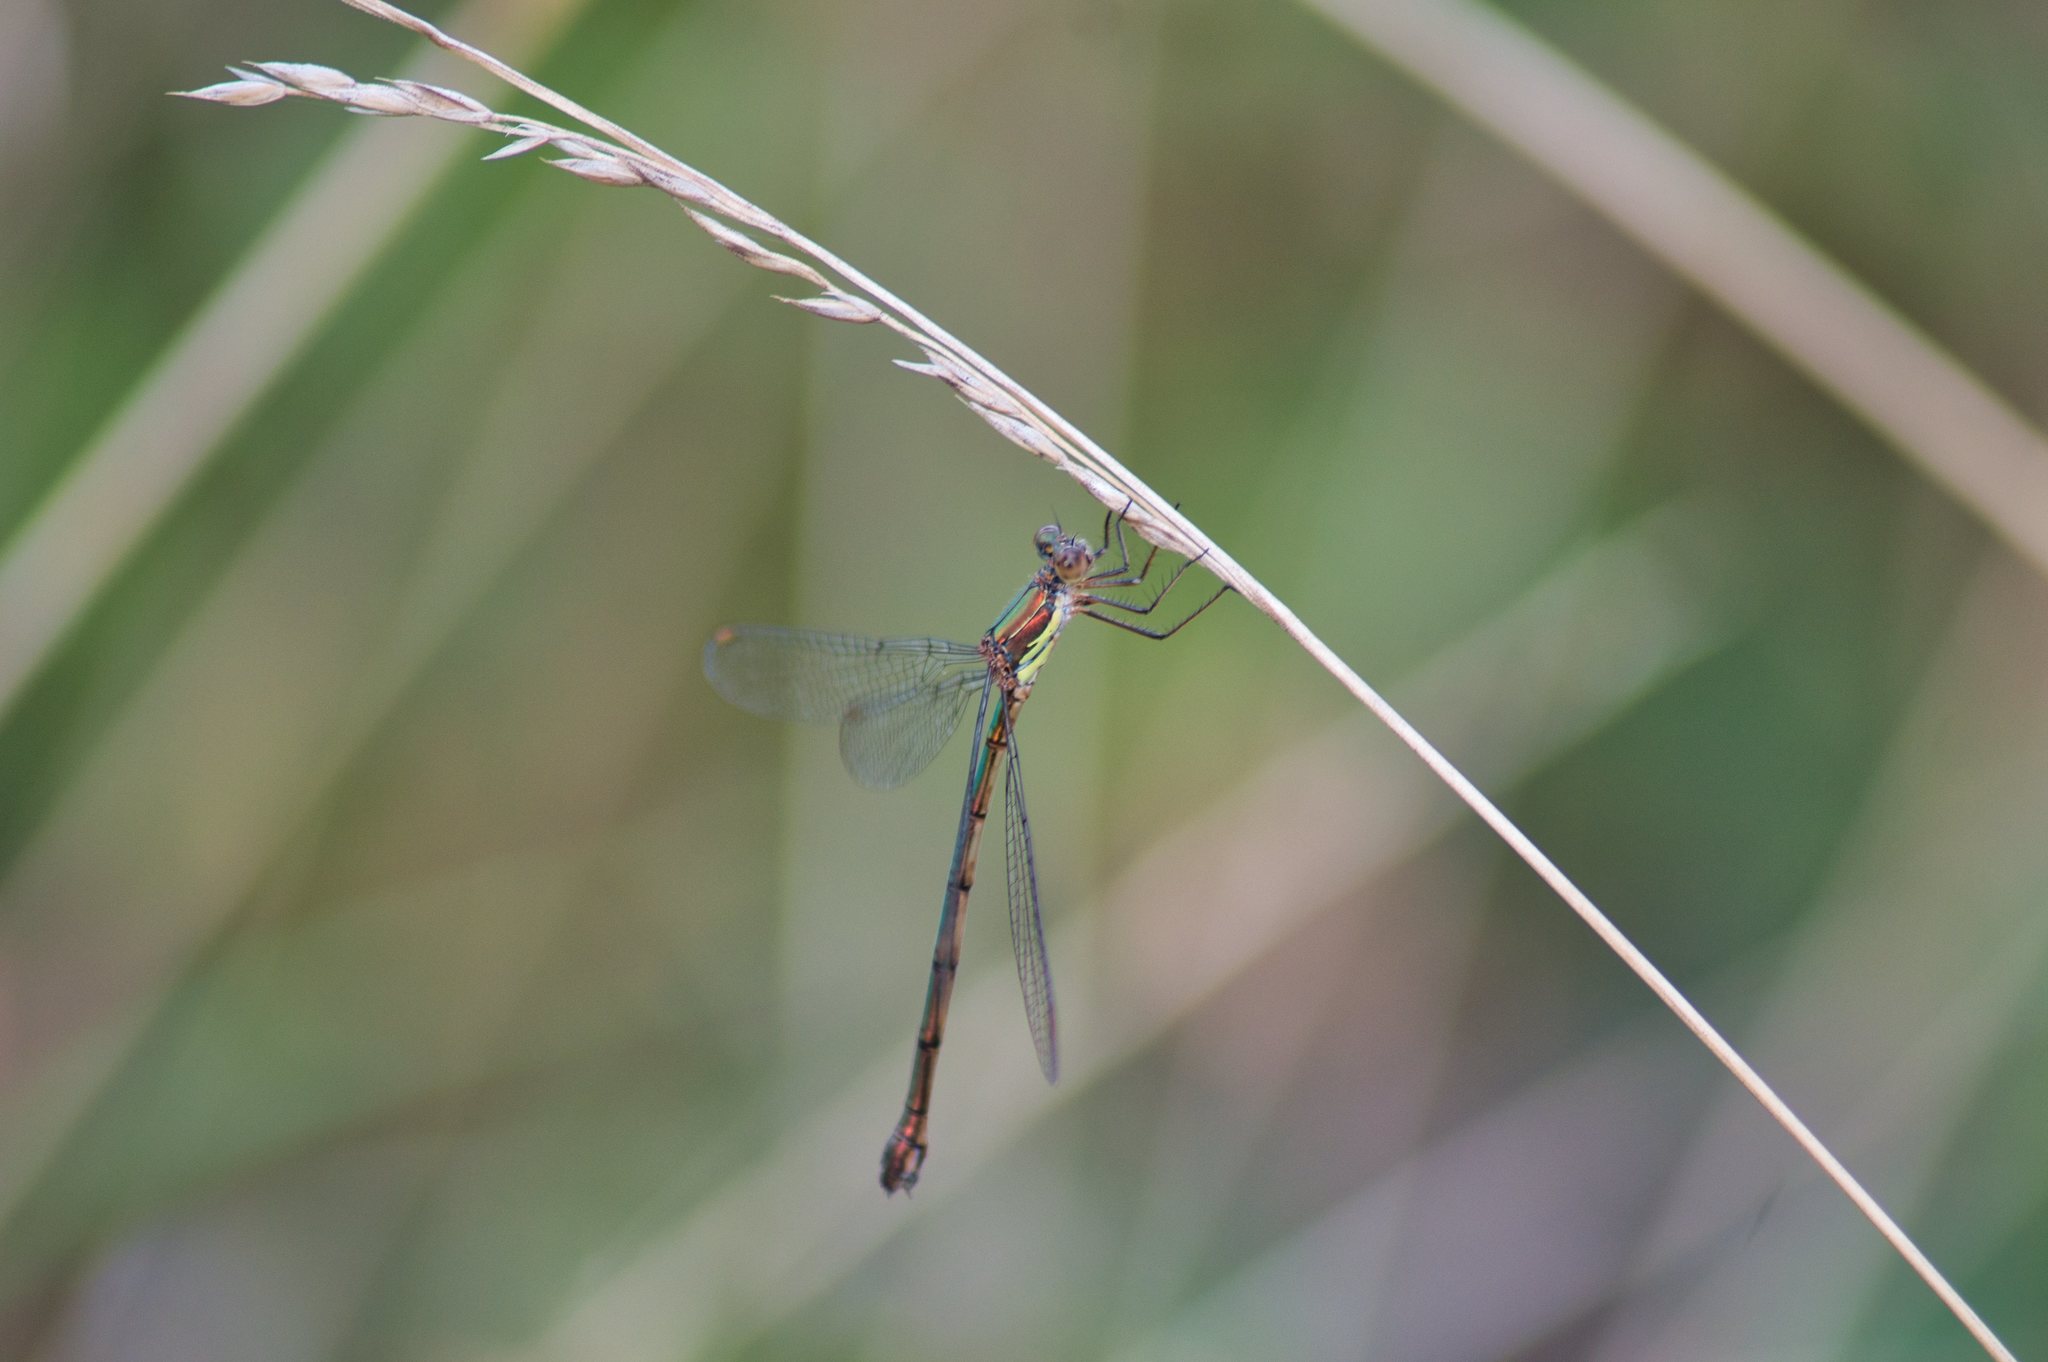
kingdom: Animalia
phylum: Arthropoda
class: Insecta
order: Odonata
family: Lestidae
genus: Chalcolestes
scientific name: Chalcolestes viridis
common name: Green emerald damselfly
